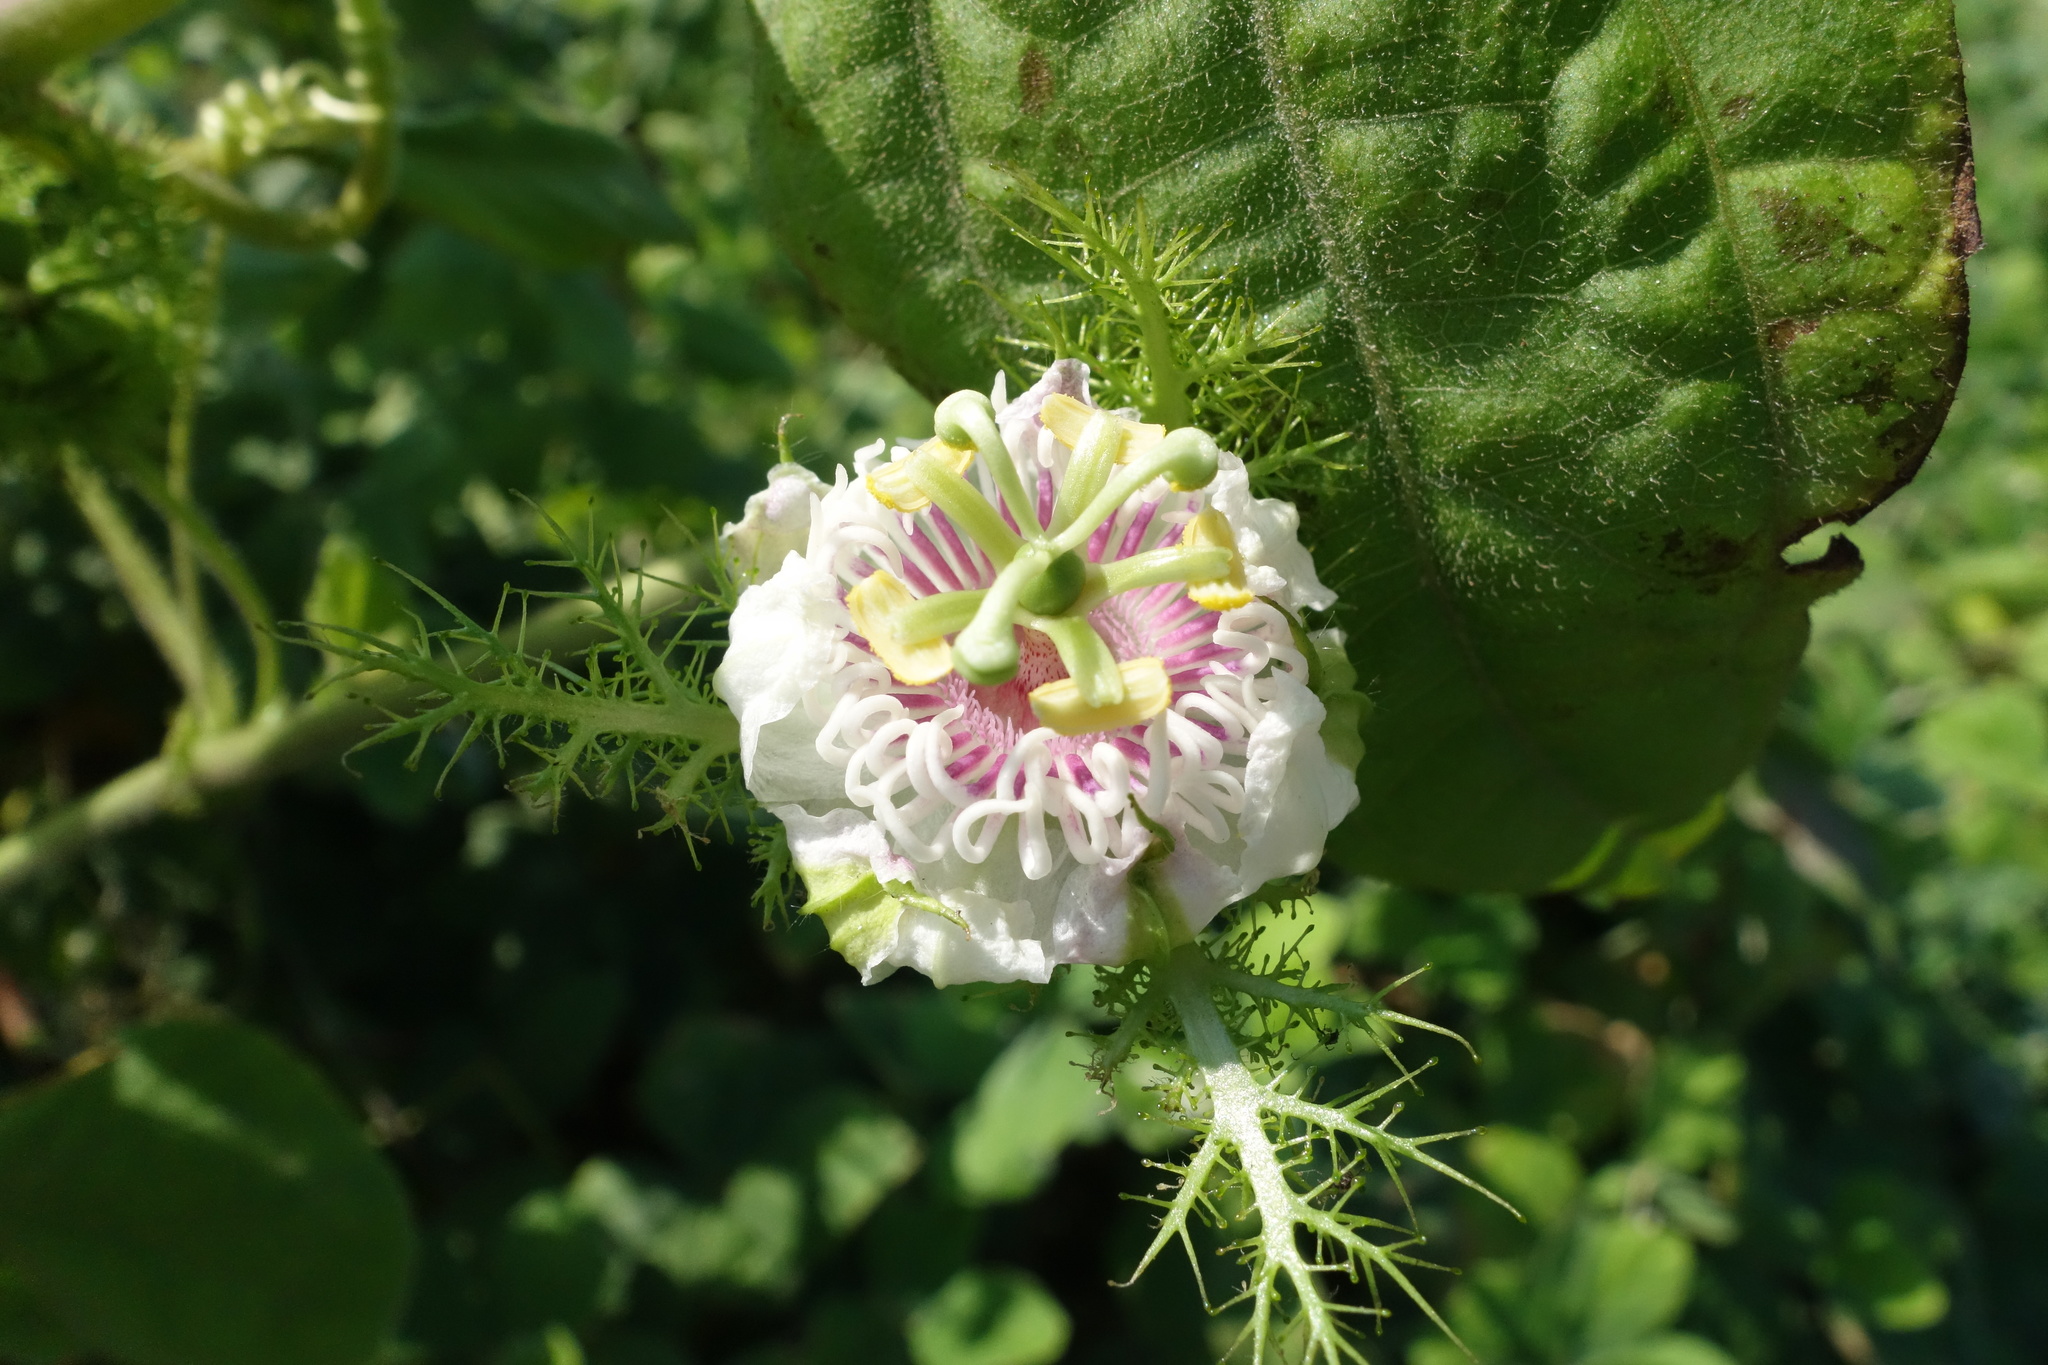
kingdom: Plantae
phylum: Tracheophyta
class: Magnoliopsida
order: Malpighiales
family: Passifloraceae
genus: Passiflora
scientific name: Passiflora vesicaria
